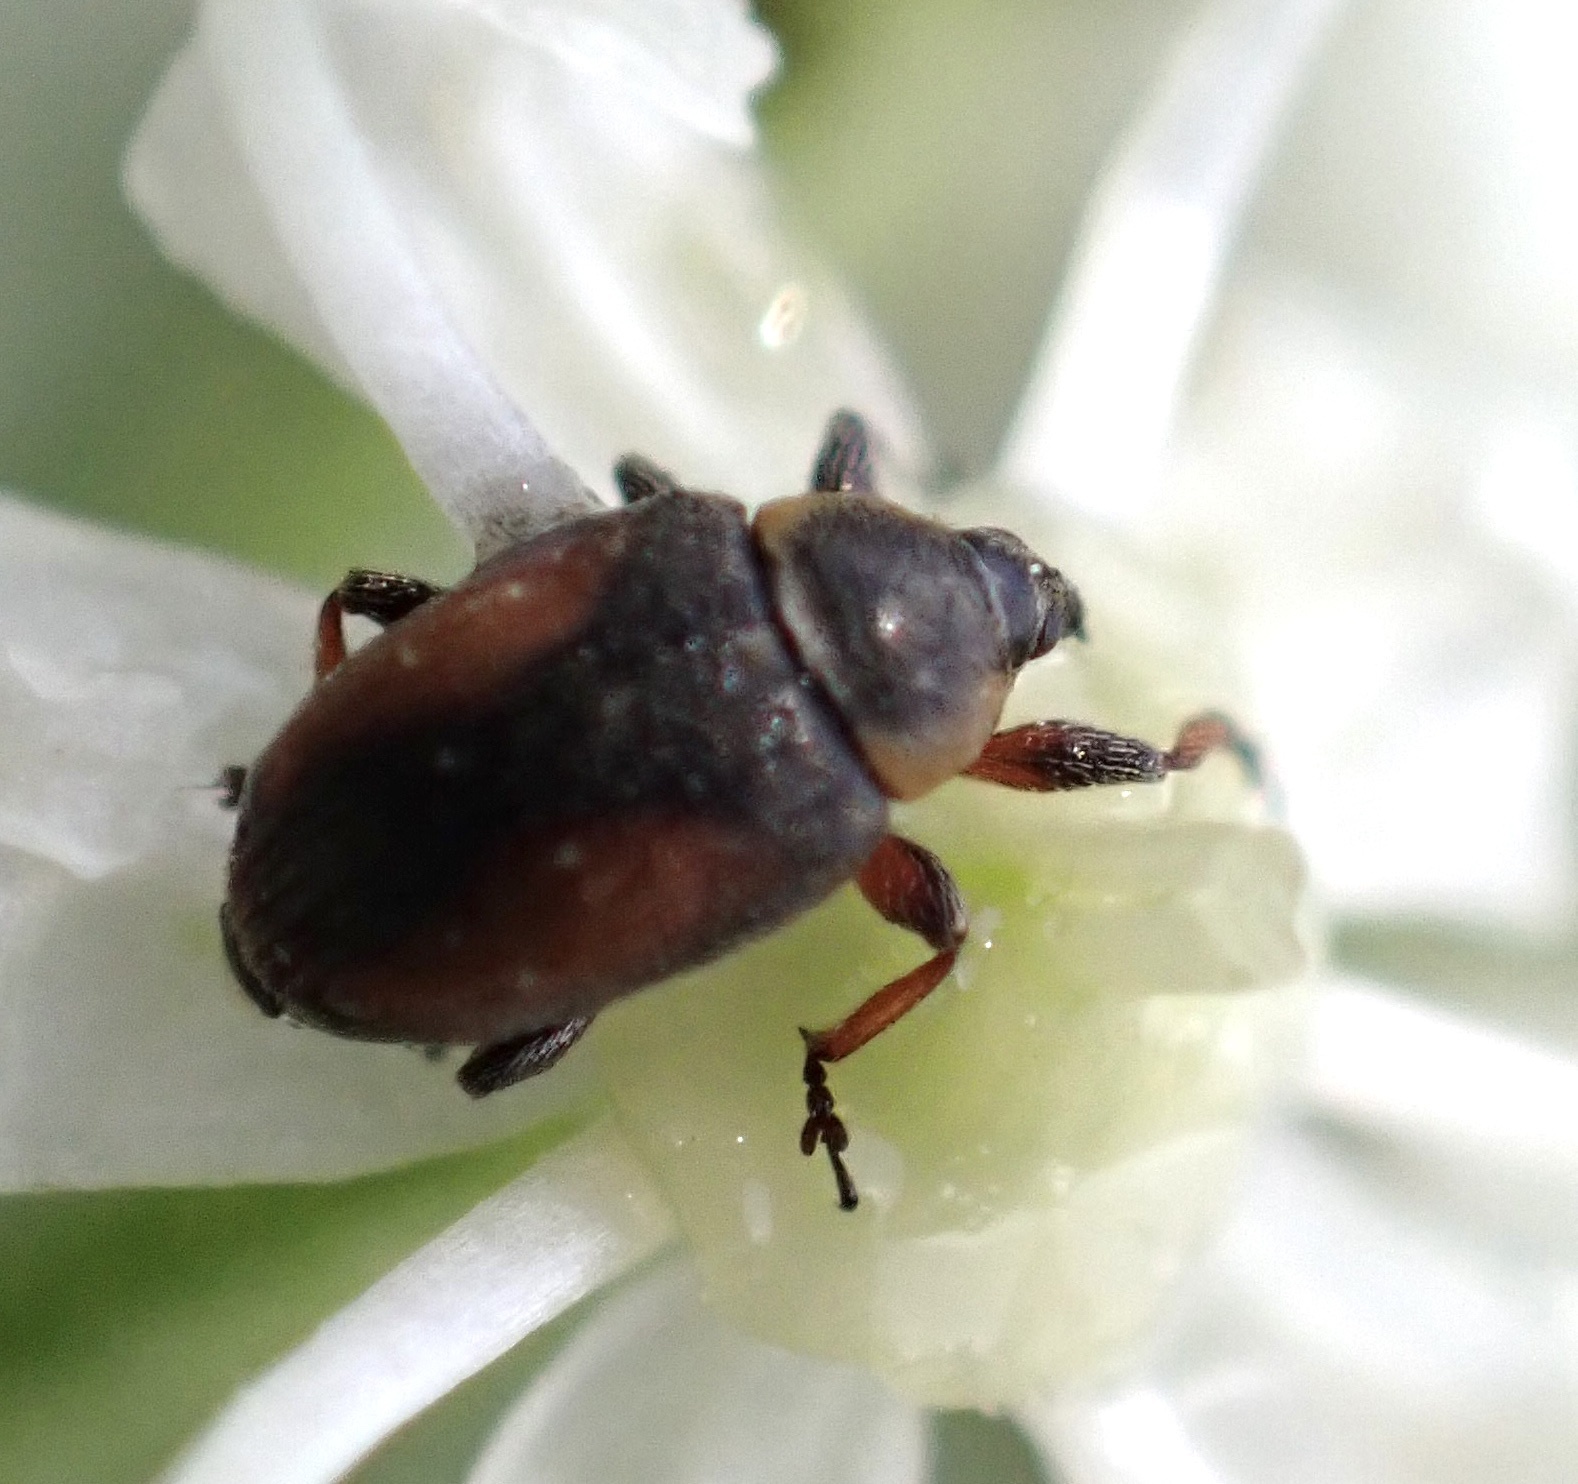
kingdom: Animalia
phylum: Arthropoda
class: Insecta
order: Coleoptera
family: Curculionidae
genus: Gymnetron
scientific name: Gymnetron veronicae
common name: Brooklime gall weevil
